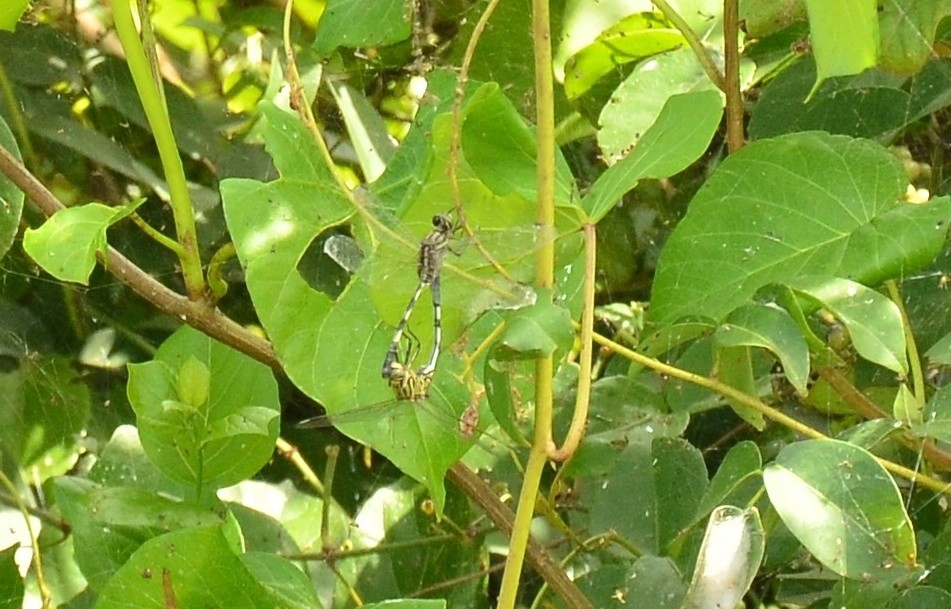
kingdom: Animalia
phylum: Arthropoda
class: Insecta
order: Odonata
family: Libellulidae
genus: Orthetrum
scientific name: Orthetrum sabina
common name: Slender skimmer
